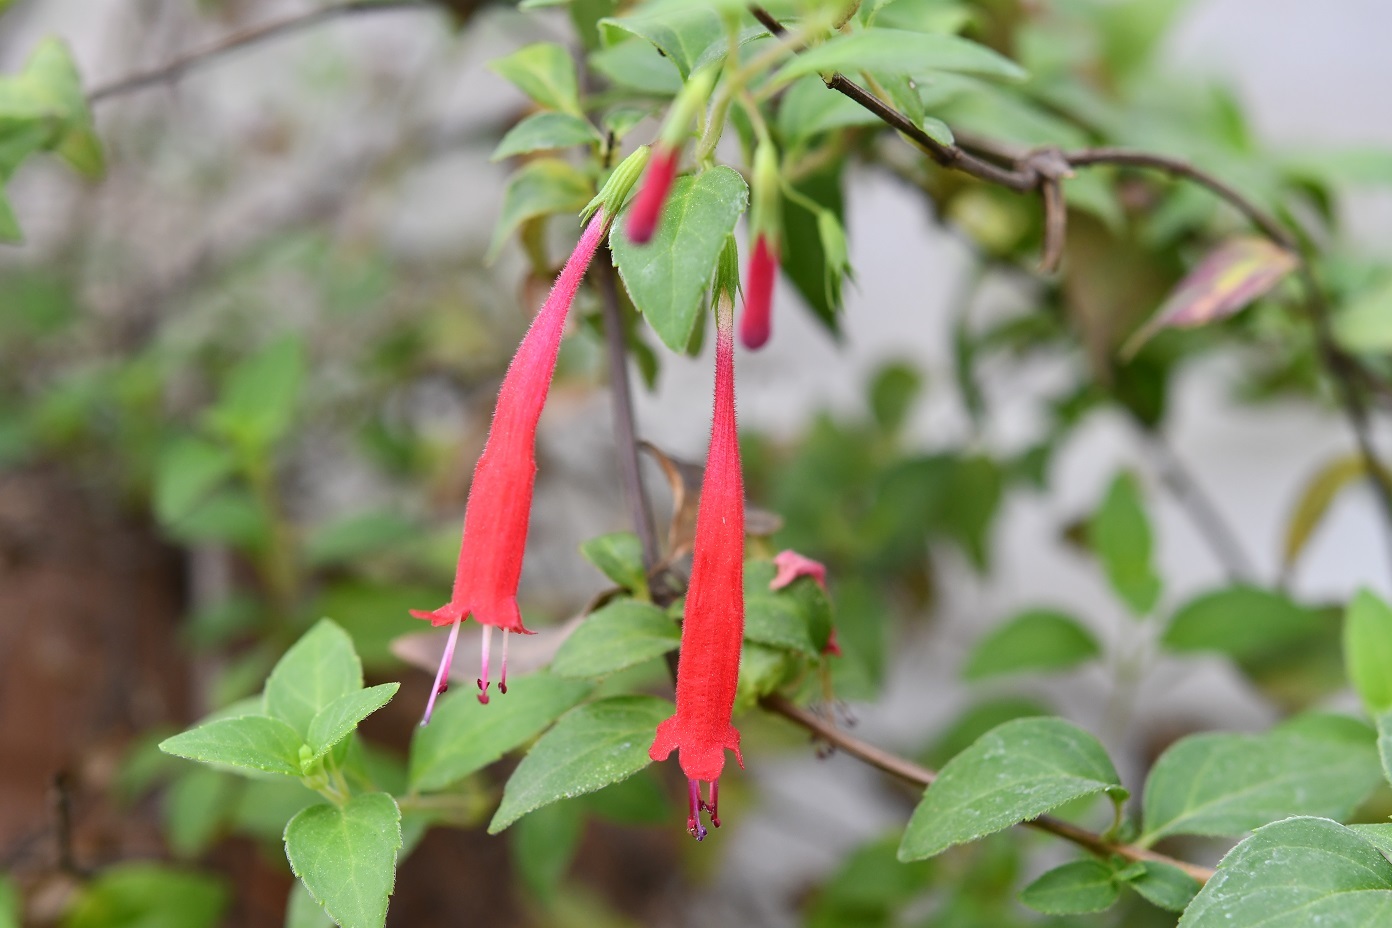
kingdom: Plantae
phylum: Tracheophyta
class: Magnoliopsida
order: Lamiales
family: Lamiaceae
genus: Clinopodium
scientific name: Clinopodium selerianum
